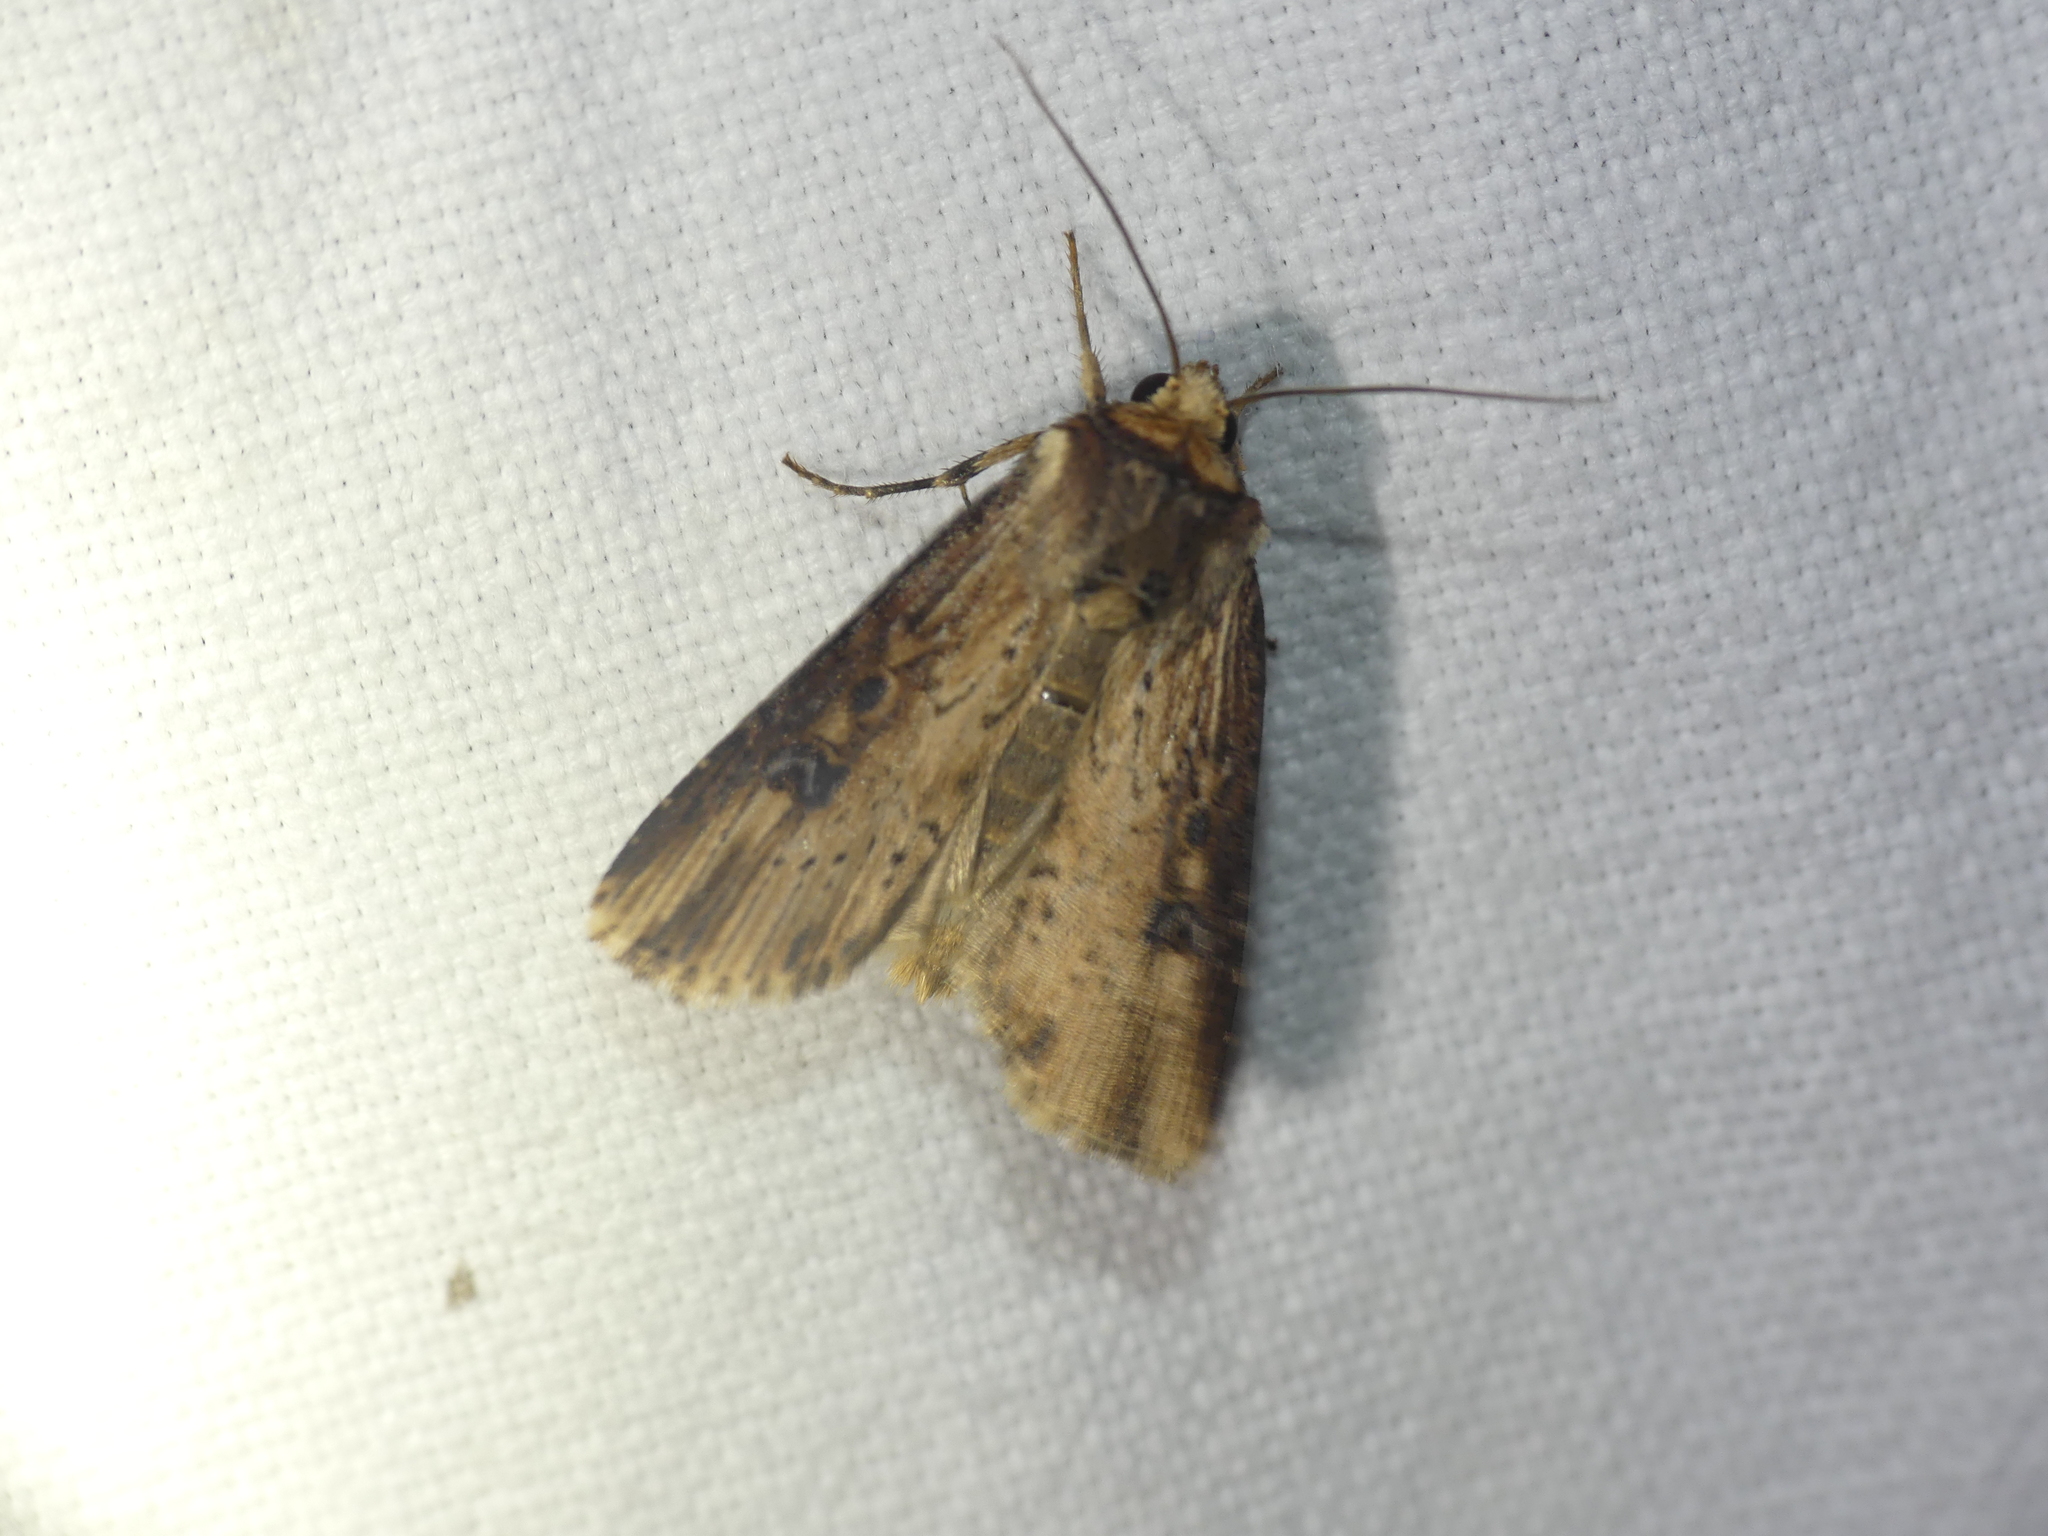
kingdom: Animalia
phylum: Arthropoda
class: Insecta
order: Lepidoptera
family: Noctuidae
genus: Axylia
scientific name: Axylia putris
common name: Flame
